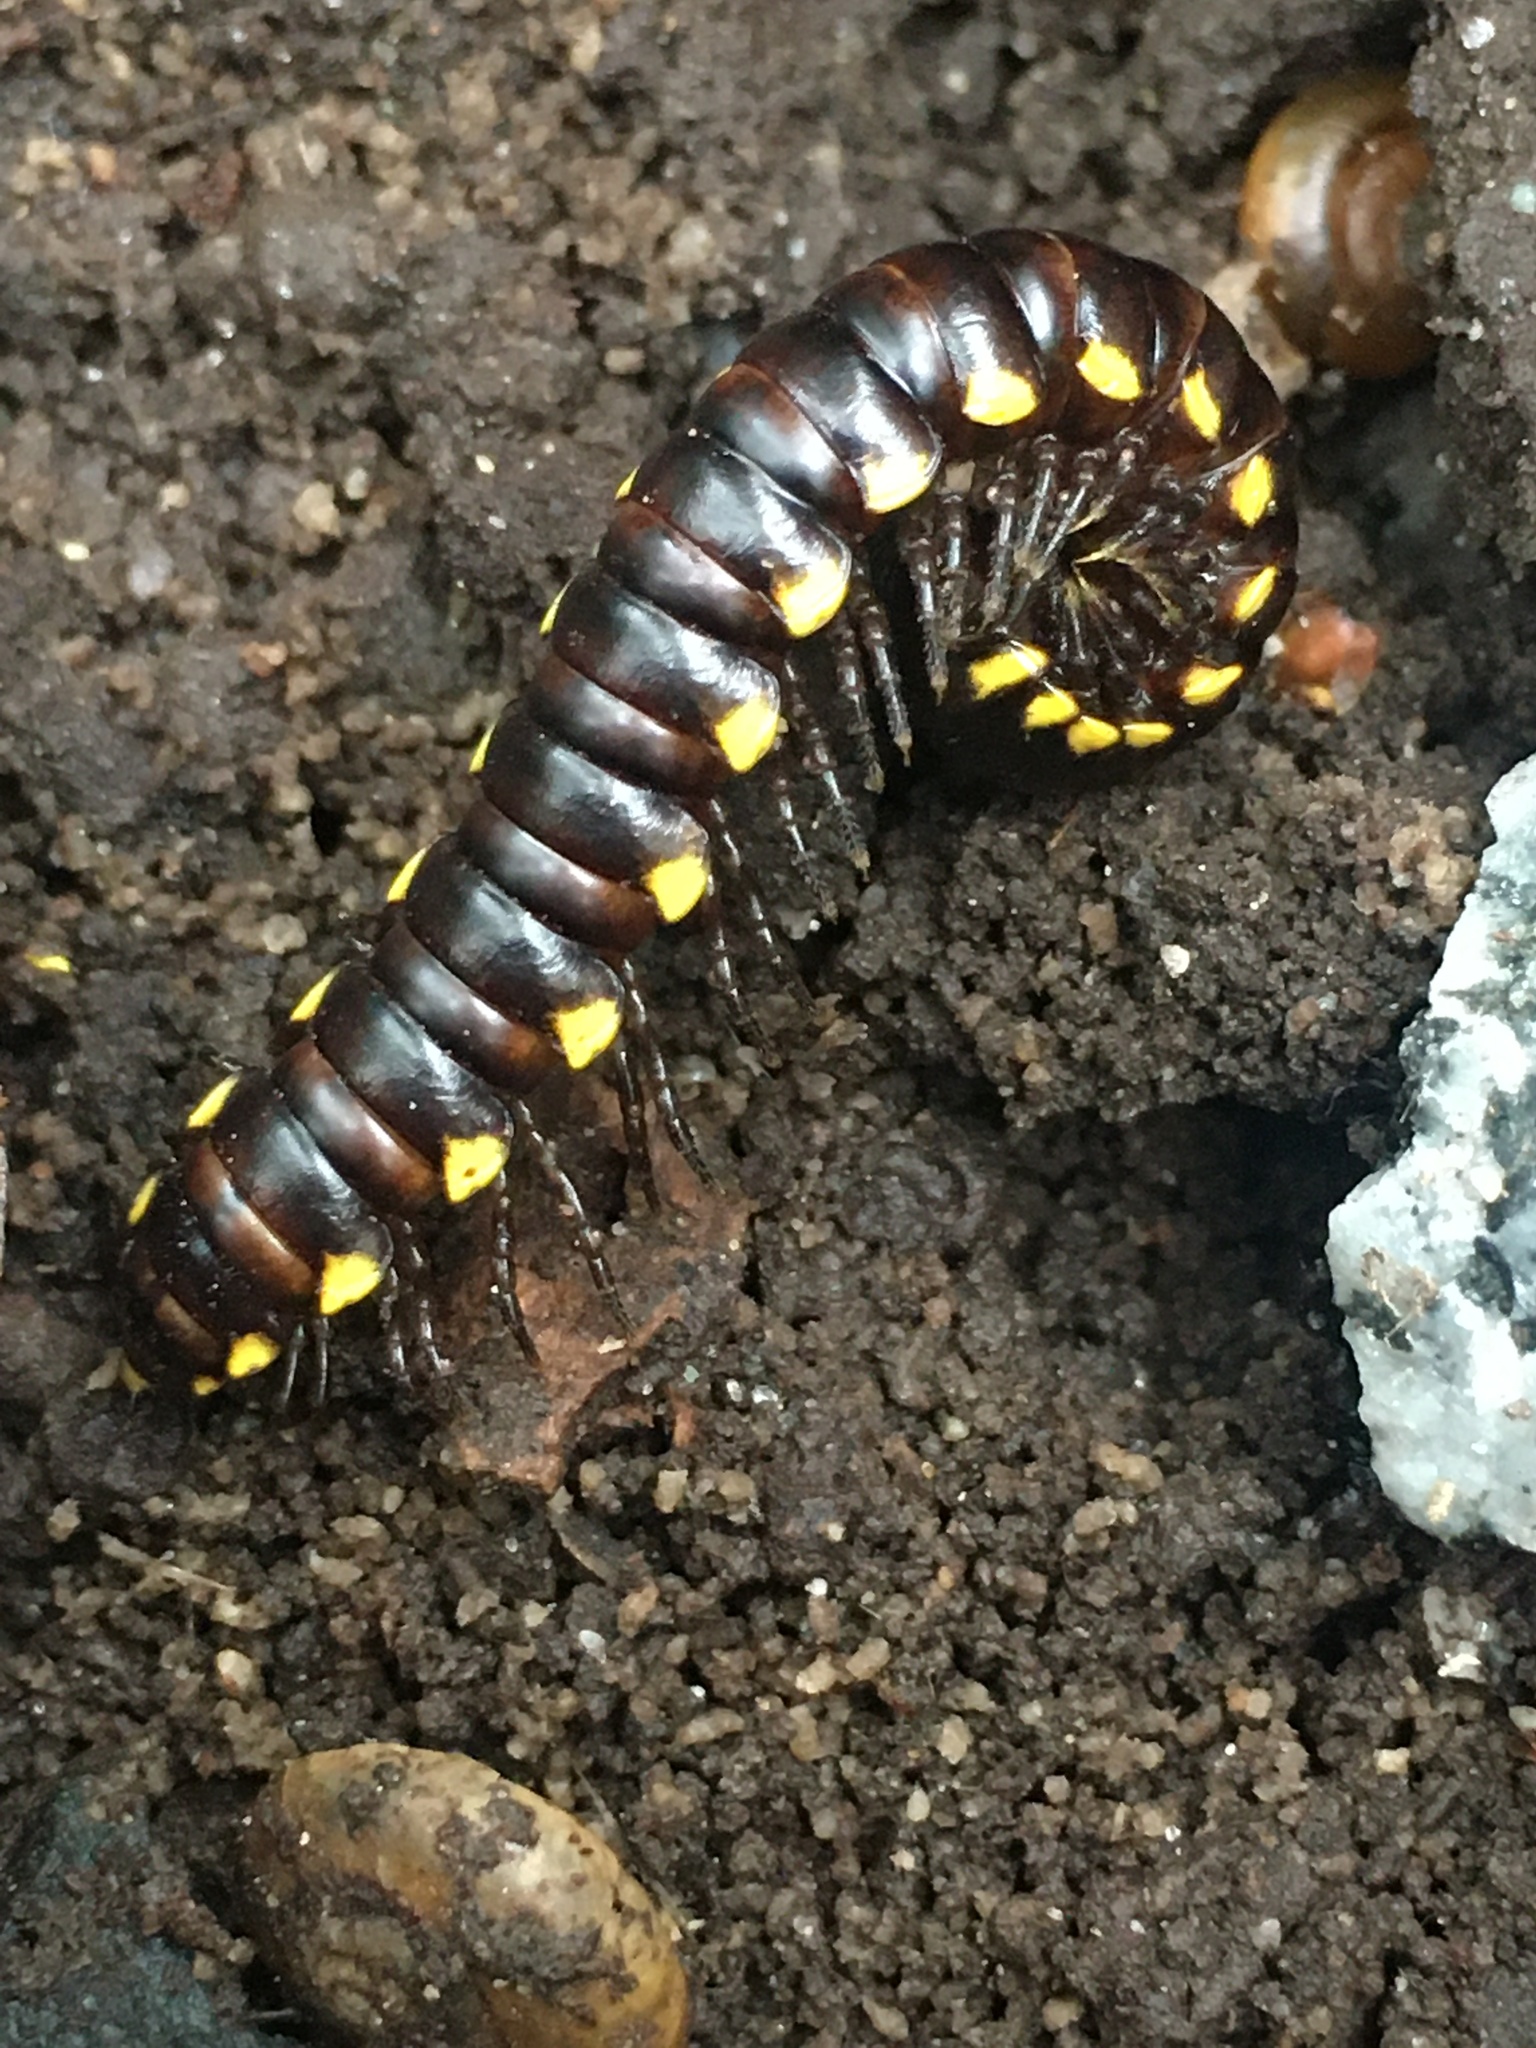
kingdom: Animalia
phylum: Arthropoda
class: Diplopoda
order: Polydesmida
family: Xystodesmidae
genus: Harpaphe
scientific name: Harpaphe haydeniana
